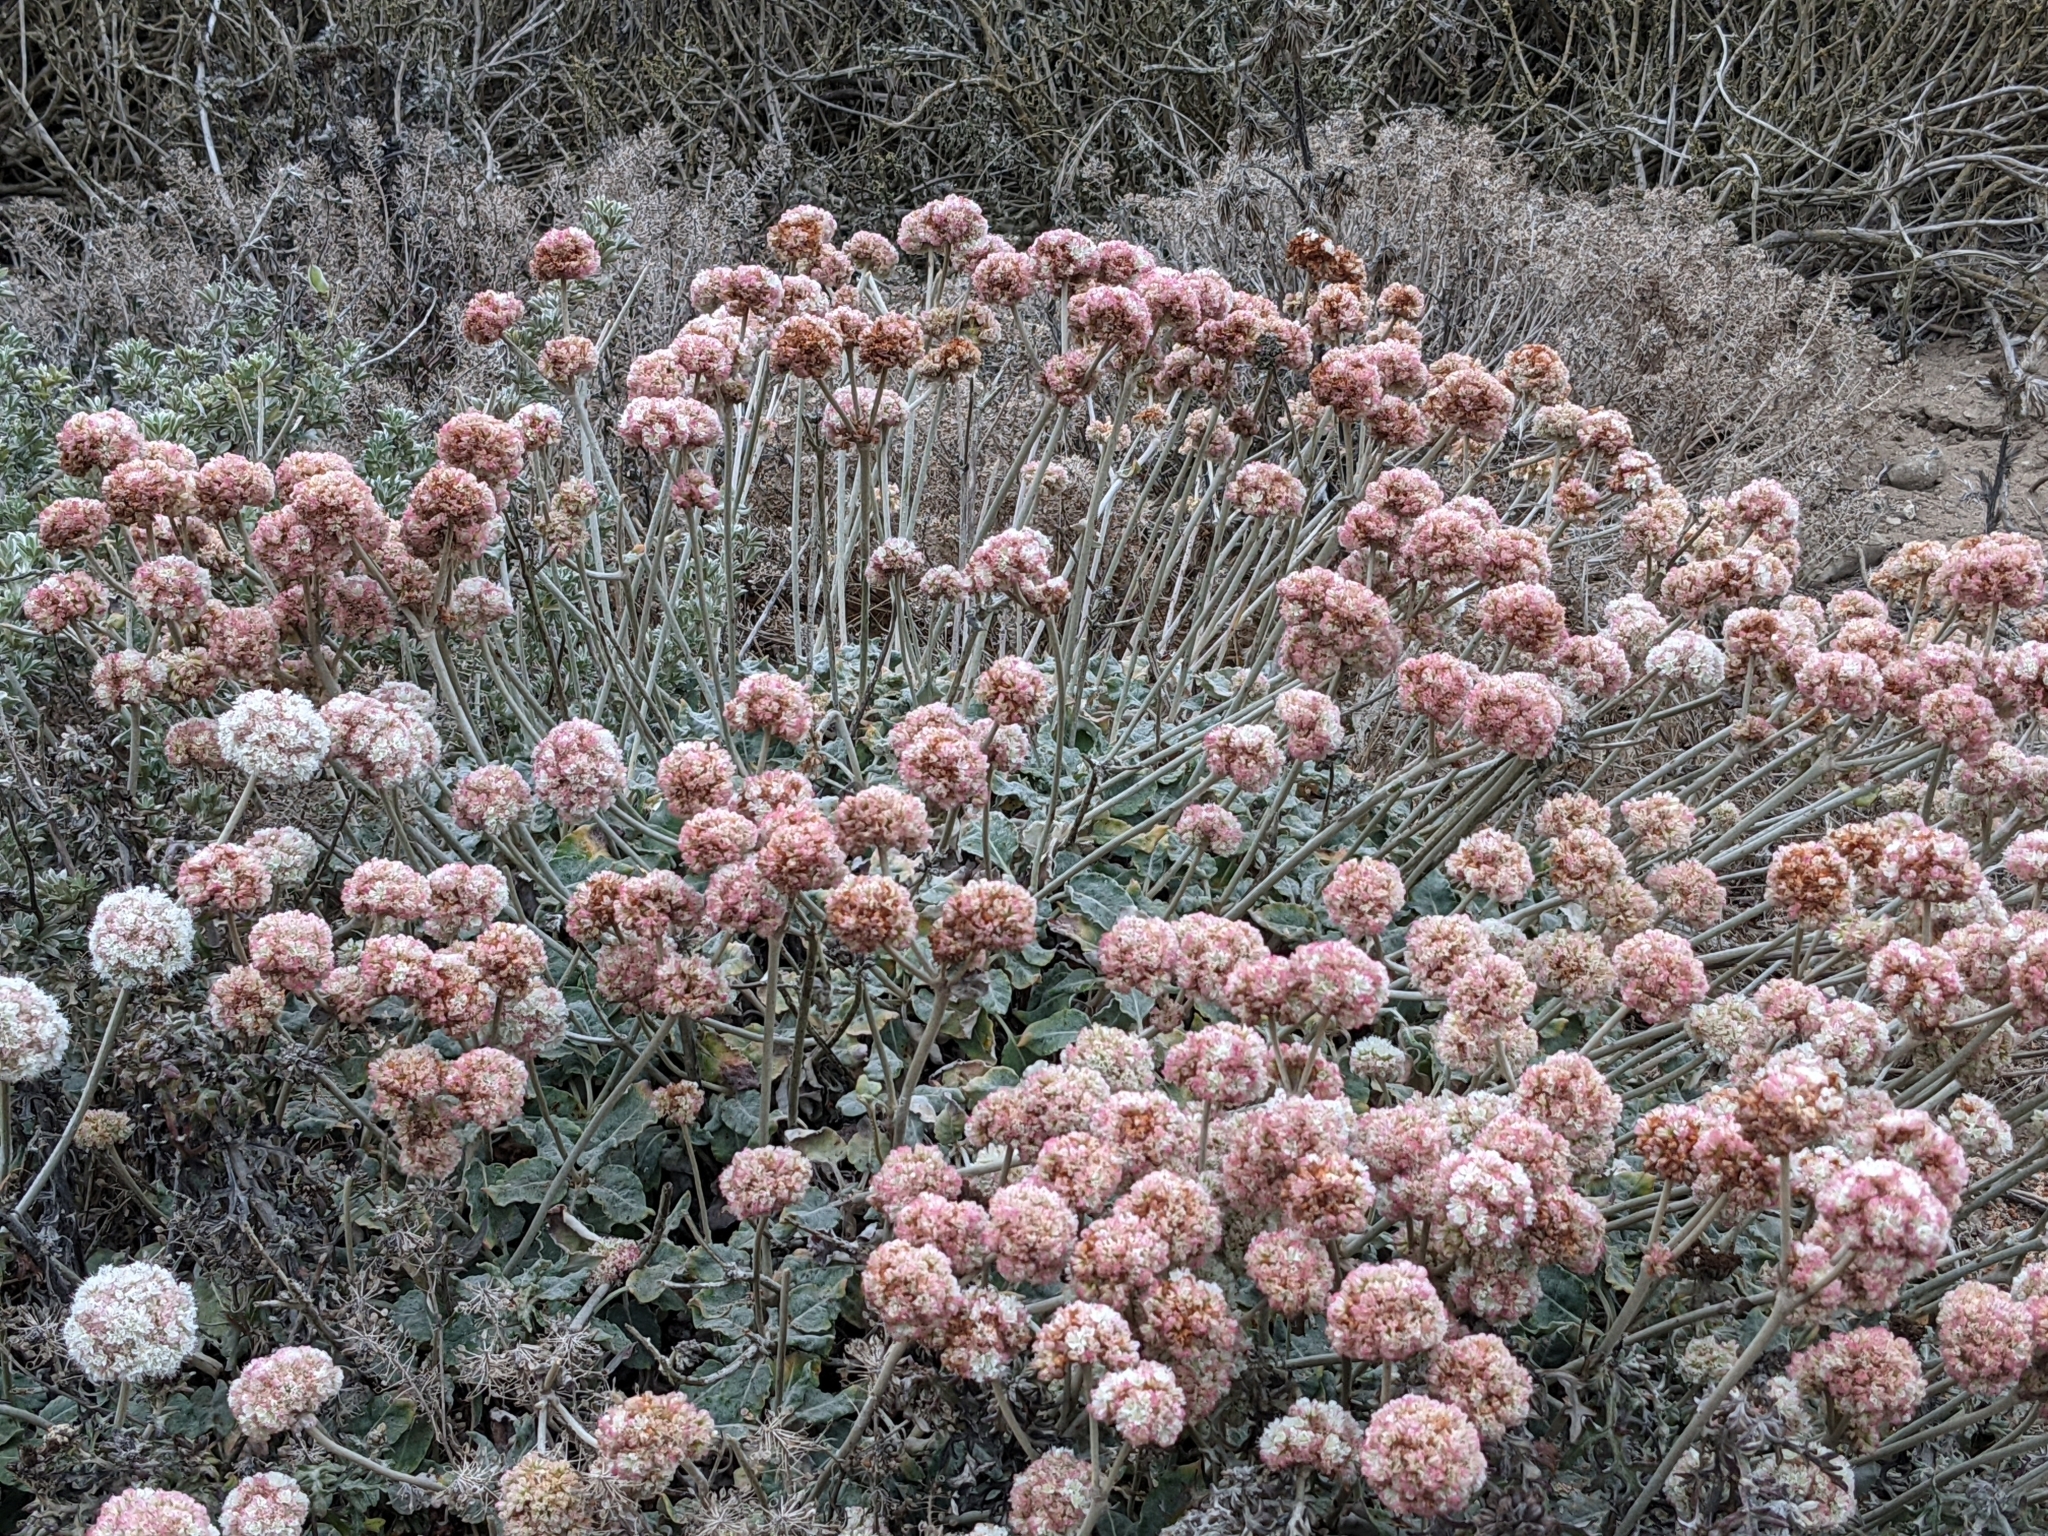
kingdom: Plantae
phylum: Tracheophyta
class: Magnoliopsida
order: Caryophyllales
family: Polygonaceae
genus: Eriogonum
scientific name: Eriogonum latifolium
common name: Seaside wild buckwheat
